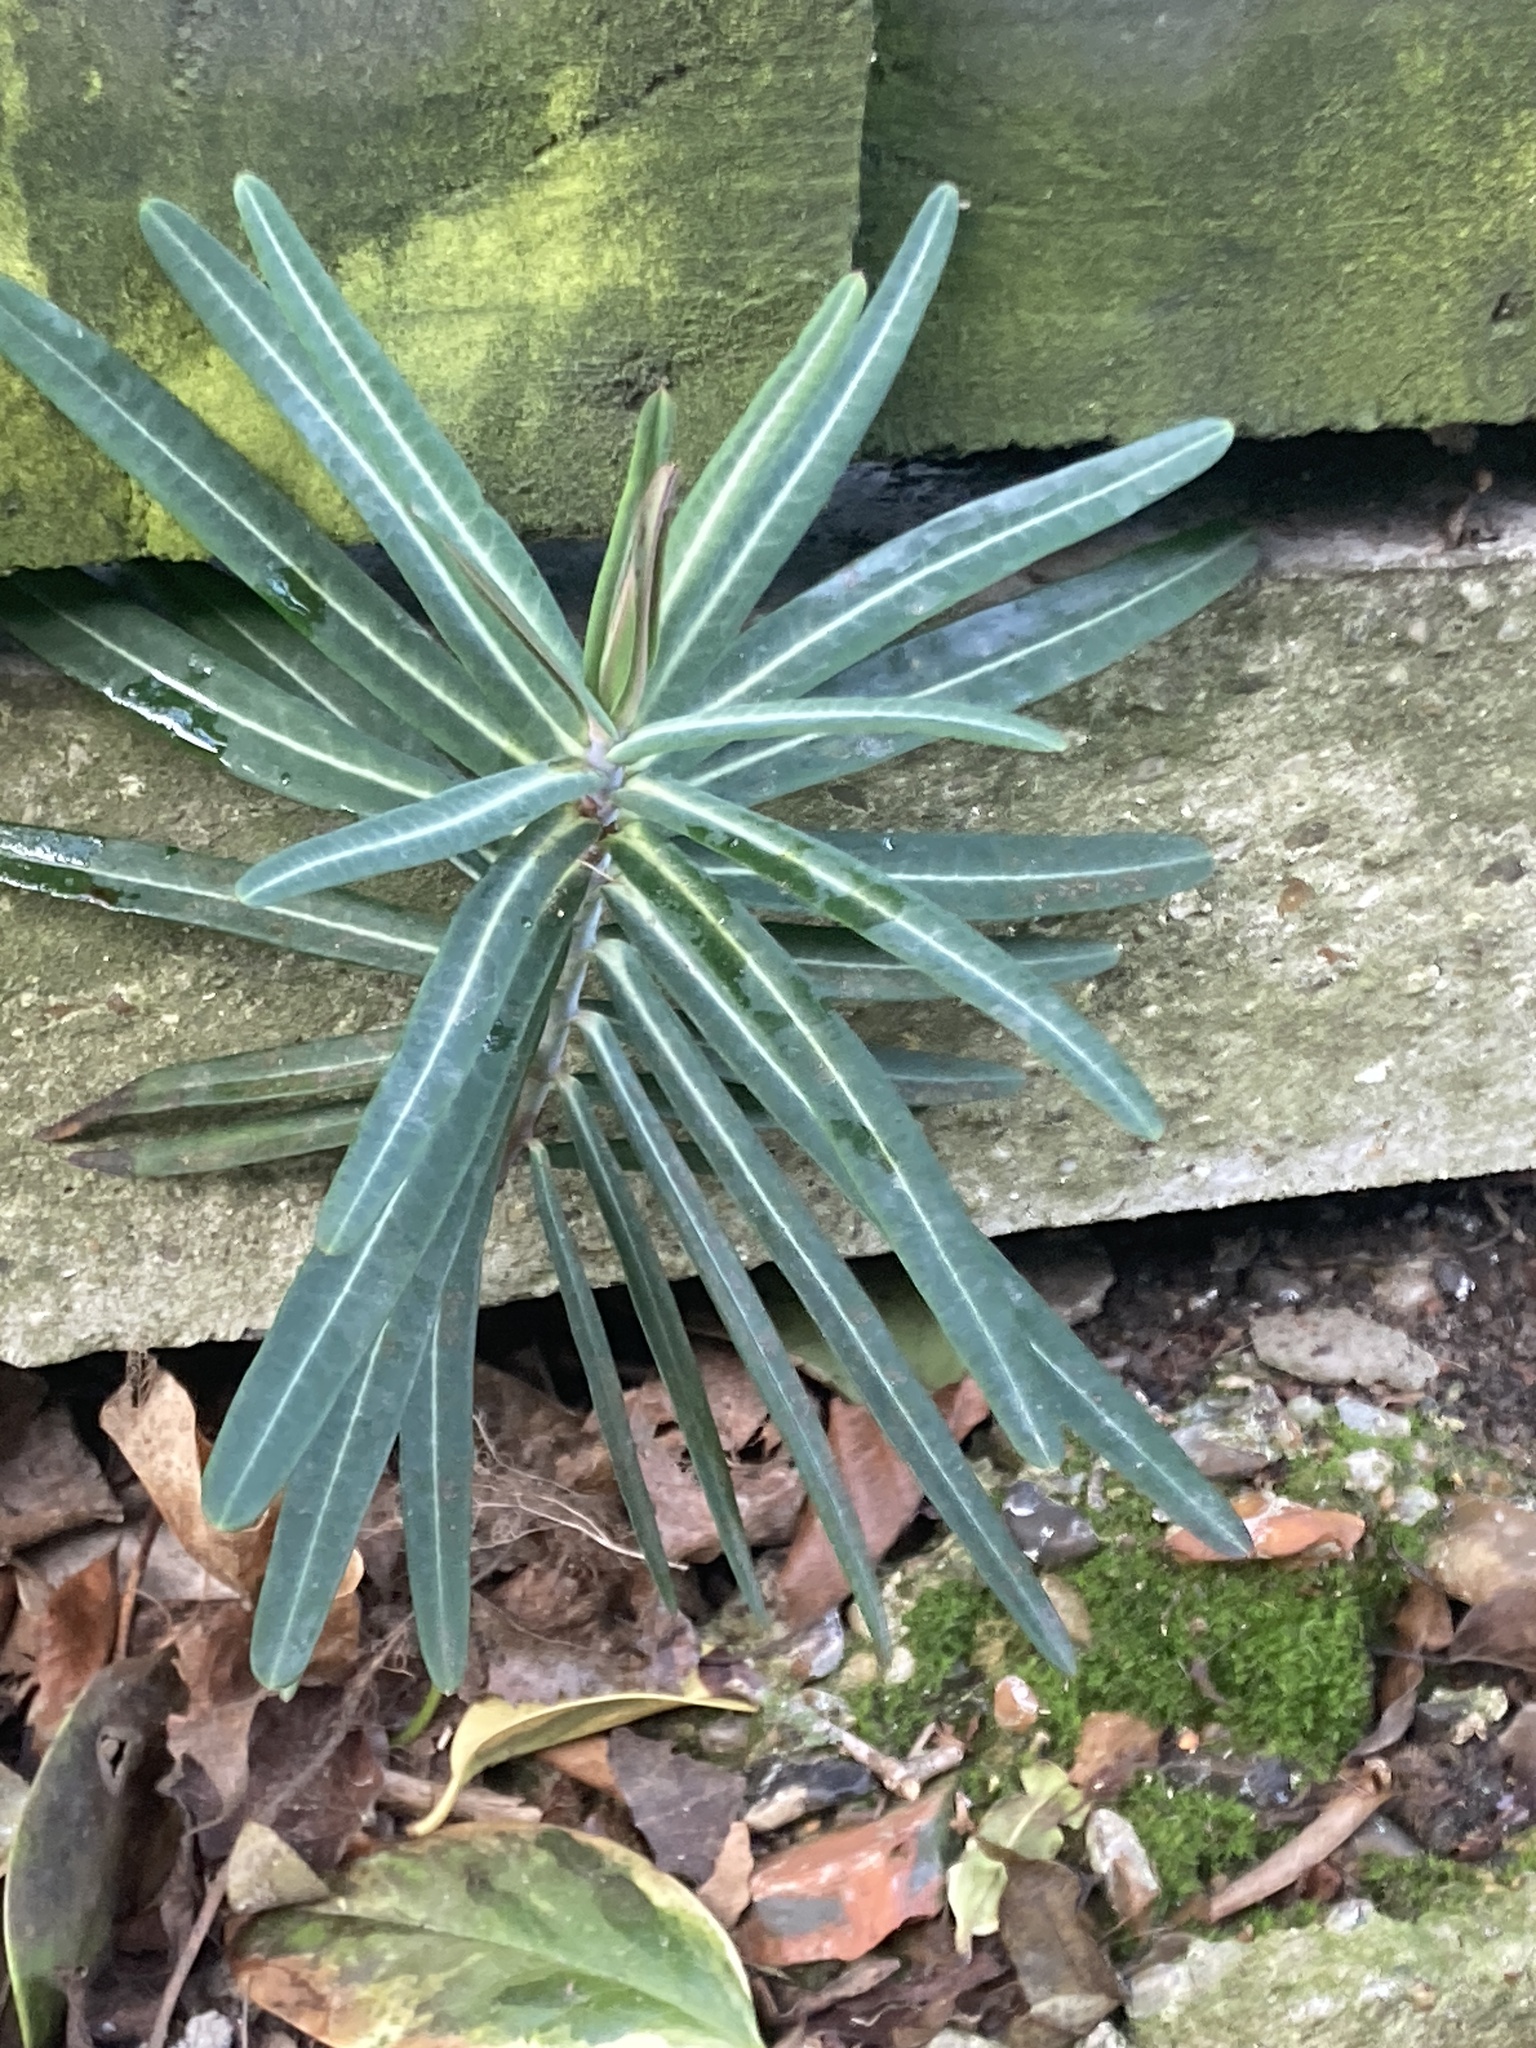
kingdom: Plantae
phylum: Tracheophyta
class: Magnoliopsida
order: Malpighiales
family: Euphorbiaceae
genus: Euphorbia
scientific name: Euphorbia lathyris
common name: Caper spurge
